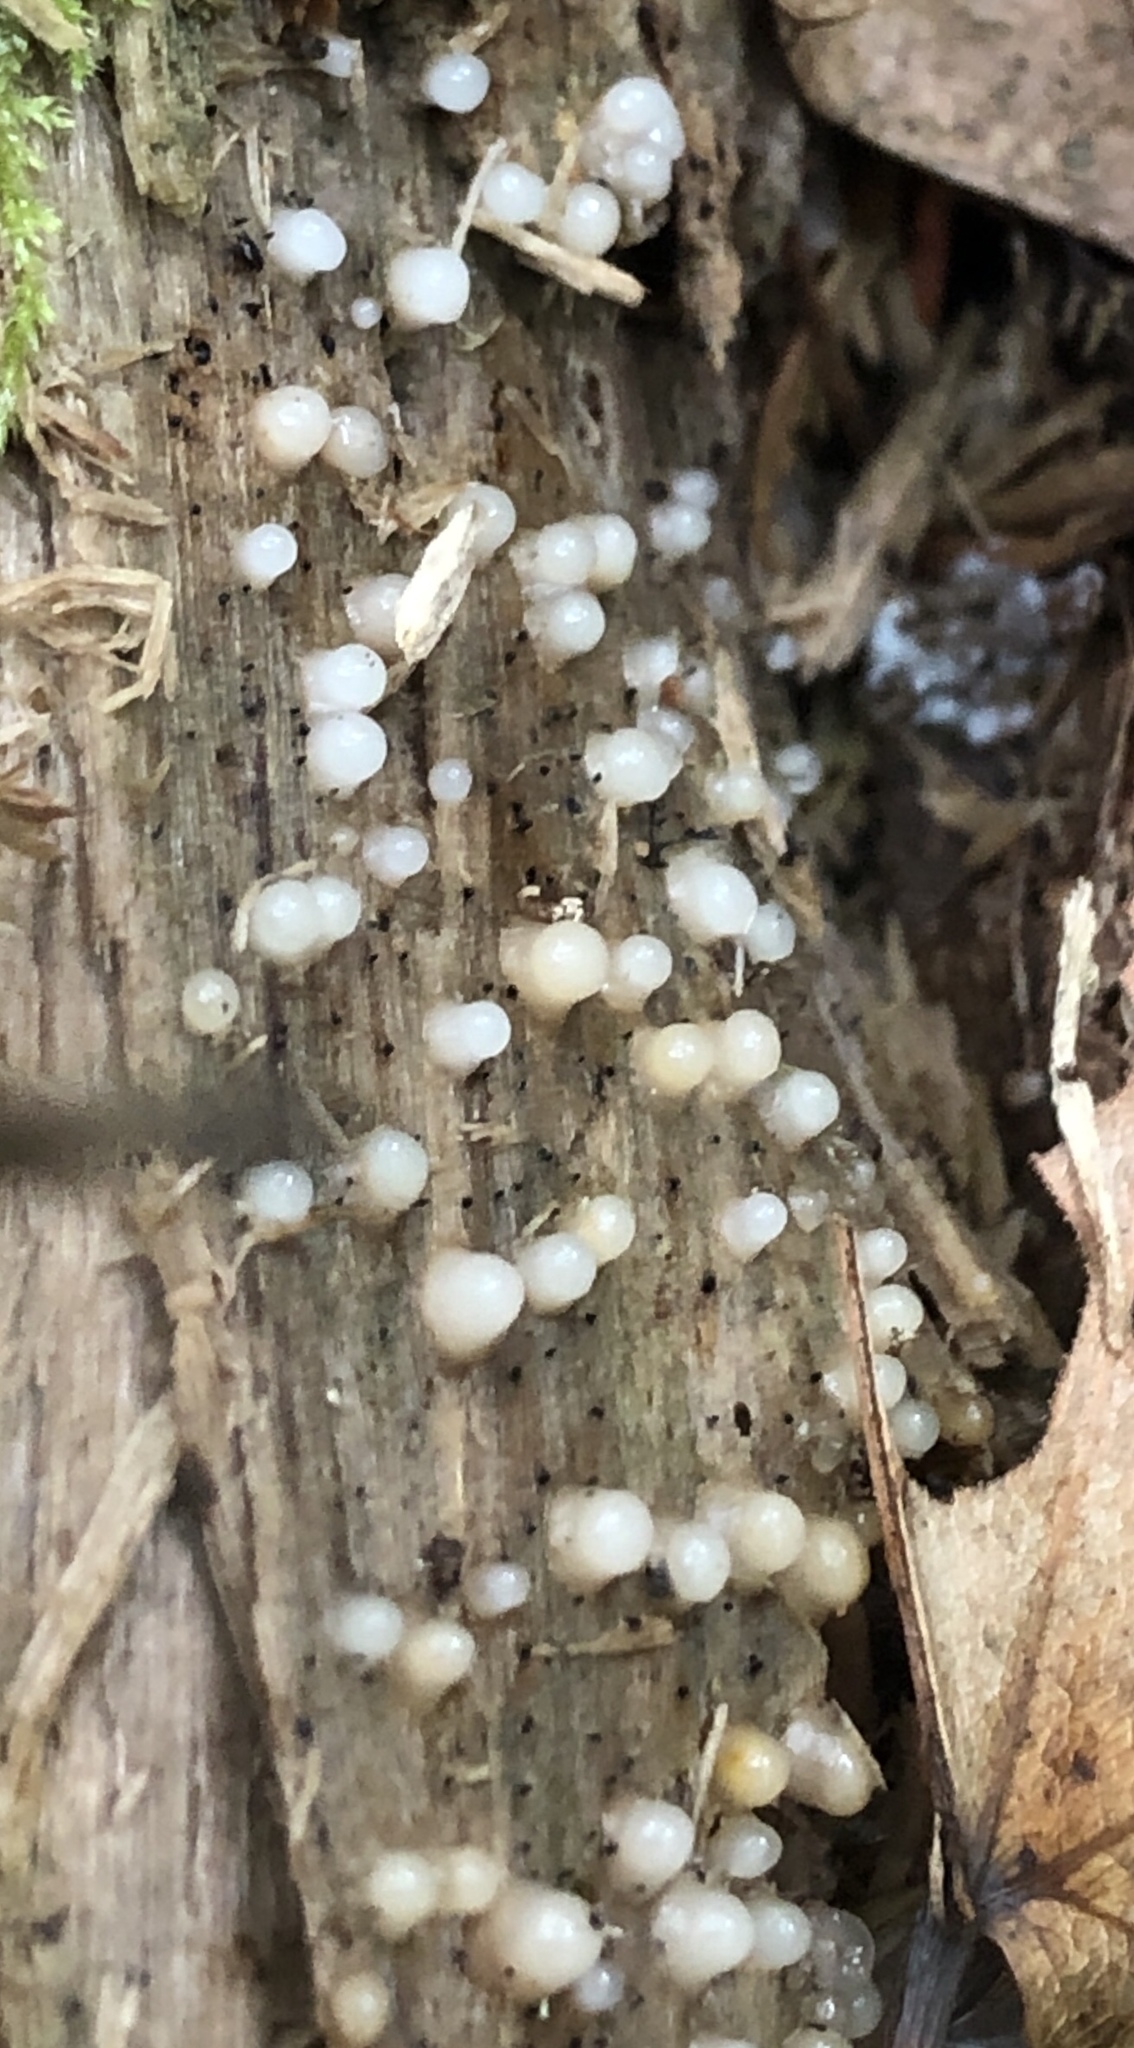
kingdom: Fungi
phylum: Basidiomycota
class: Atractiellomycetes
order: Atractiellales
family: Phleogenaceae
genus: Helicogloea
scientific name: Helicogloea compressa
